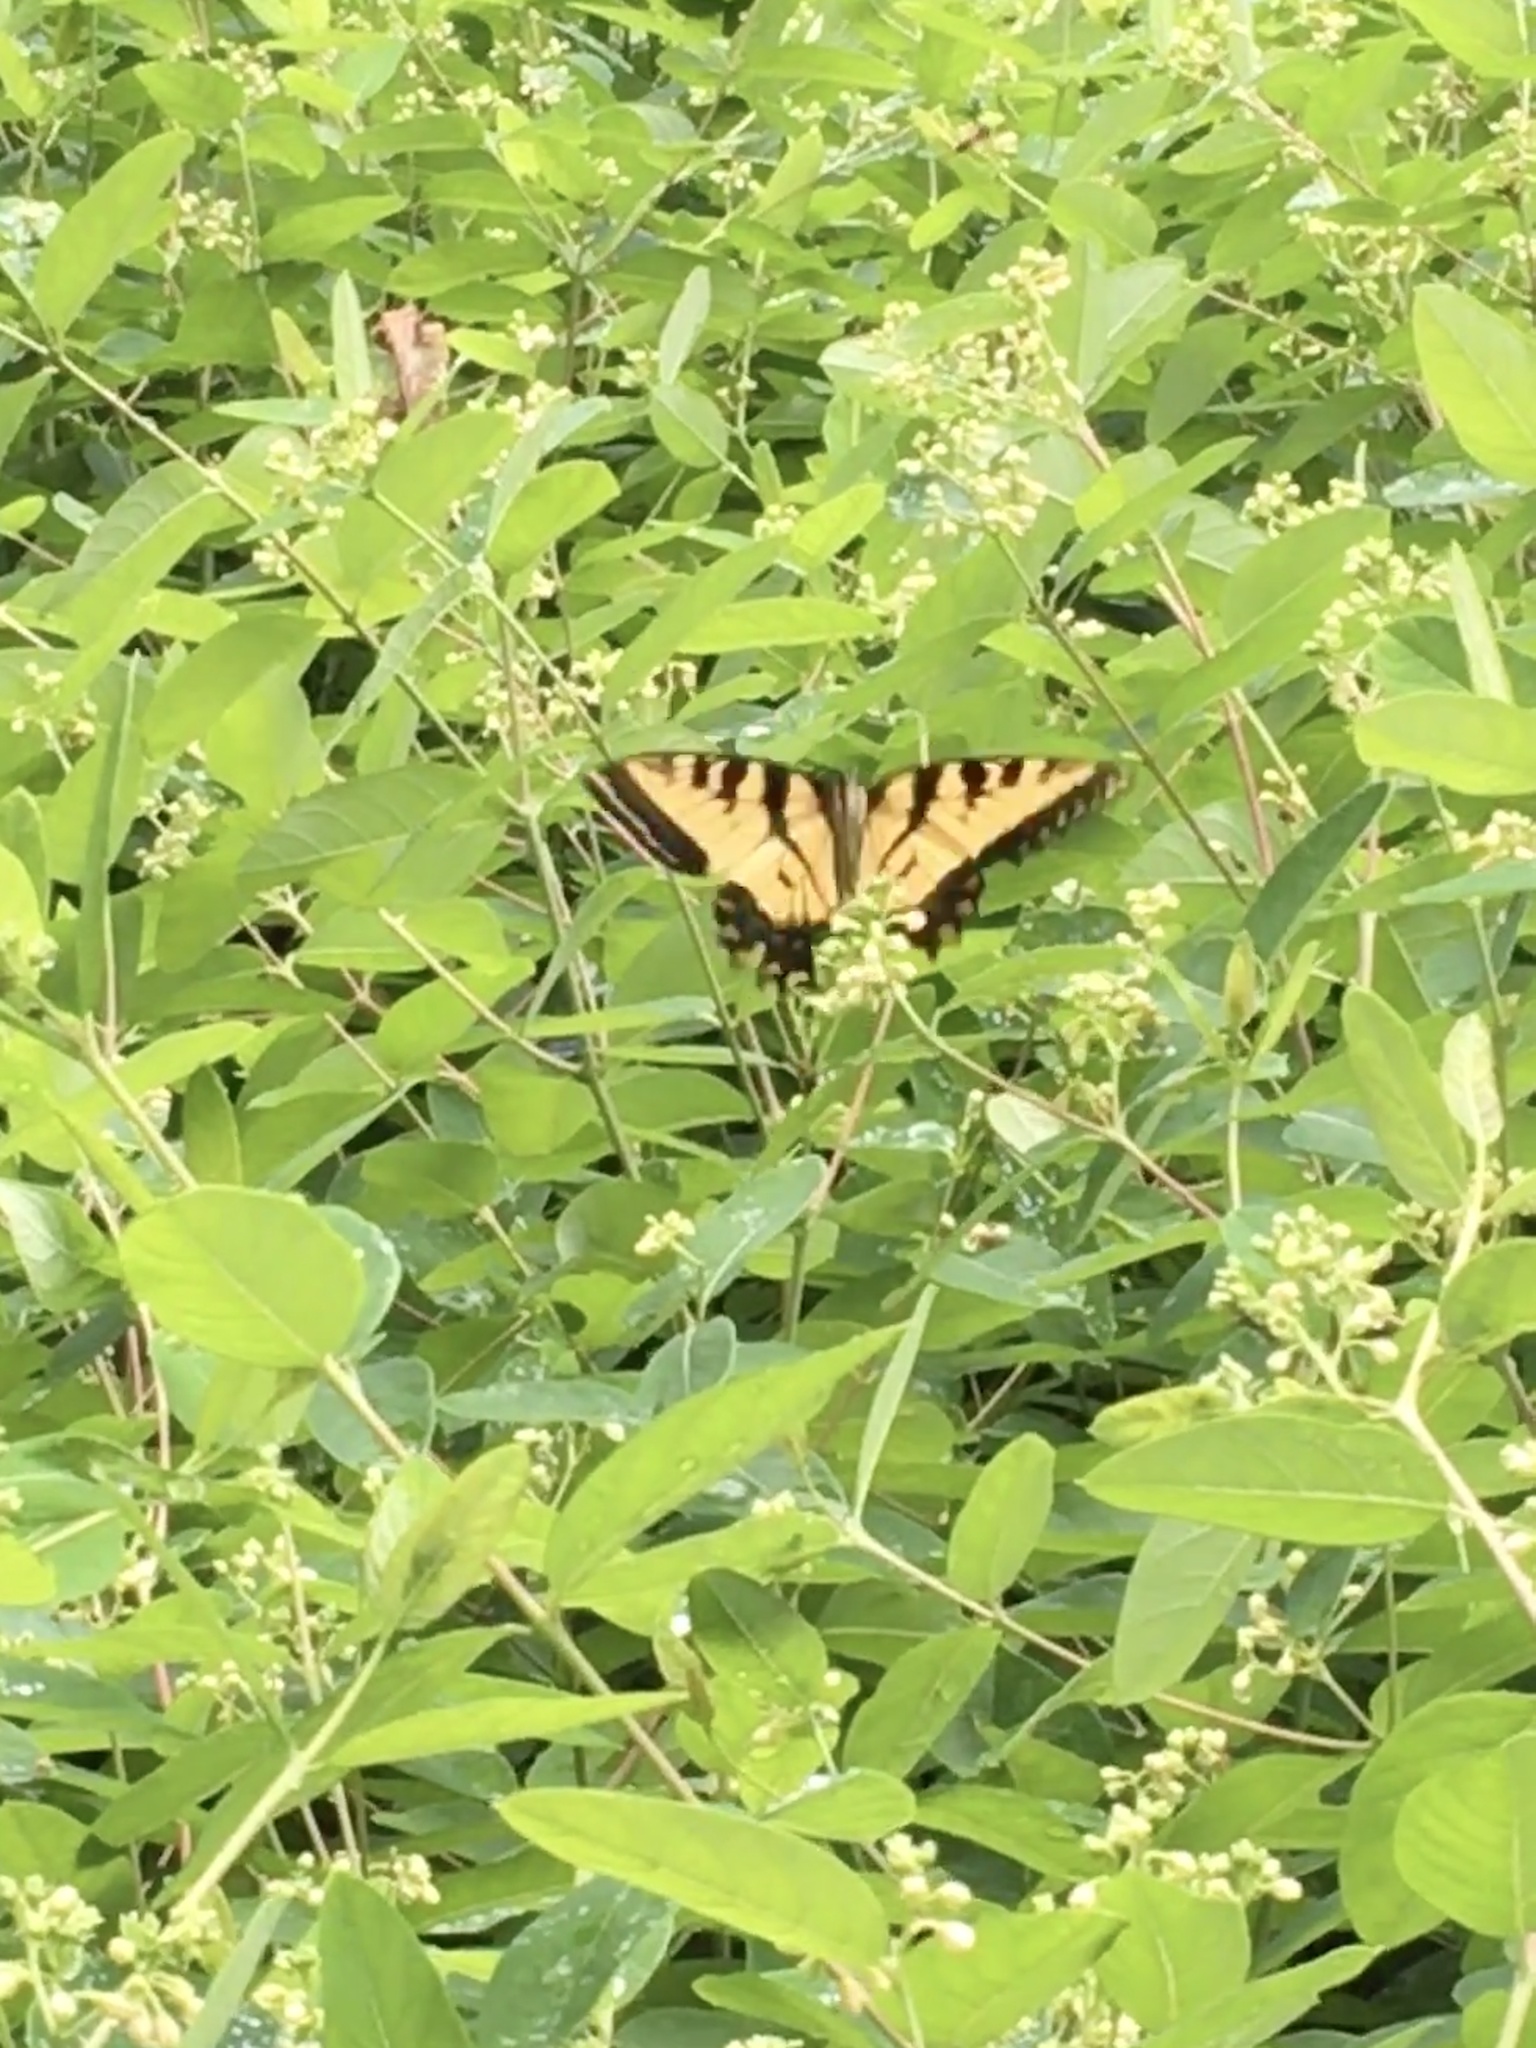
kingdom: Animalia
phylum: Arthropoda
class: Insecta
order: Lepidoptera
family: Papilionidae
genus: Papilio
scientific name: Papilio glaucus
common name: Tiger swallowtail
